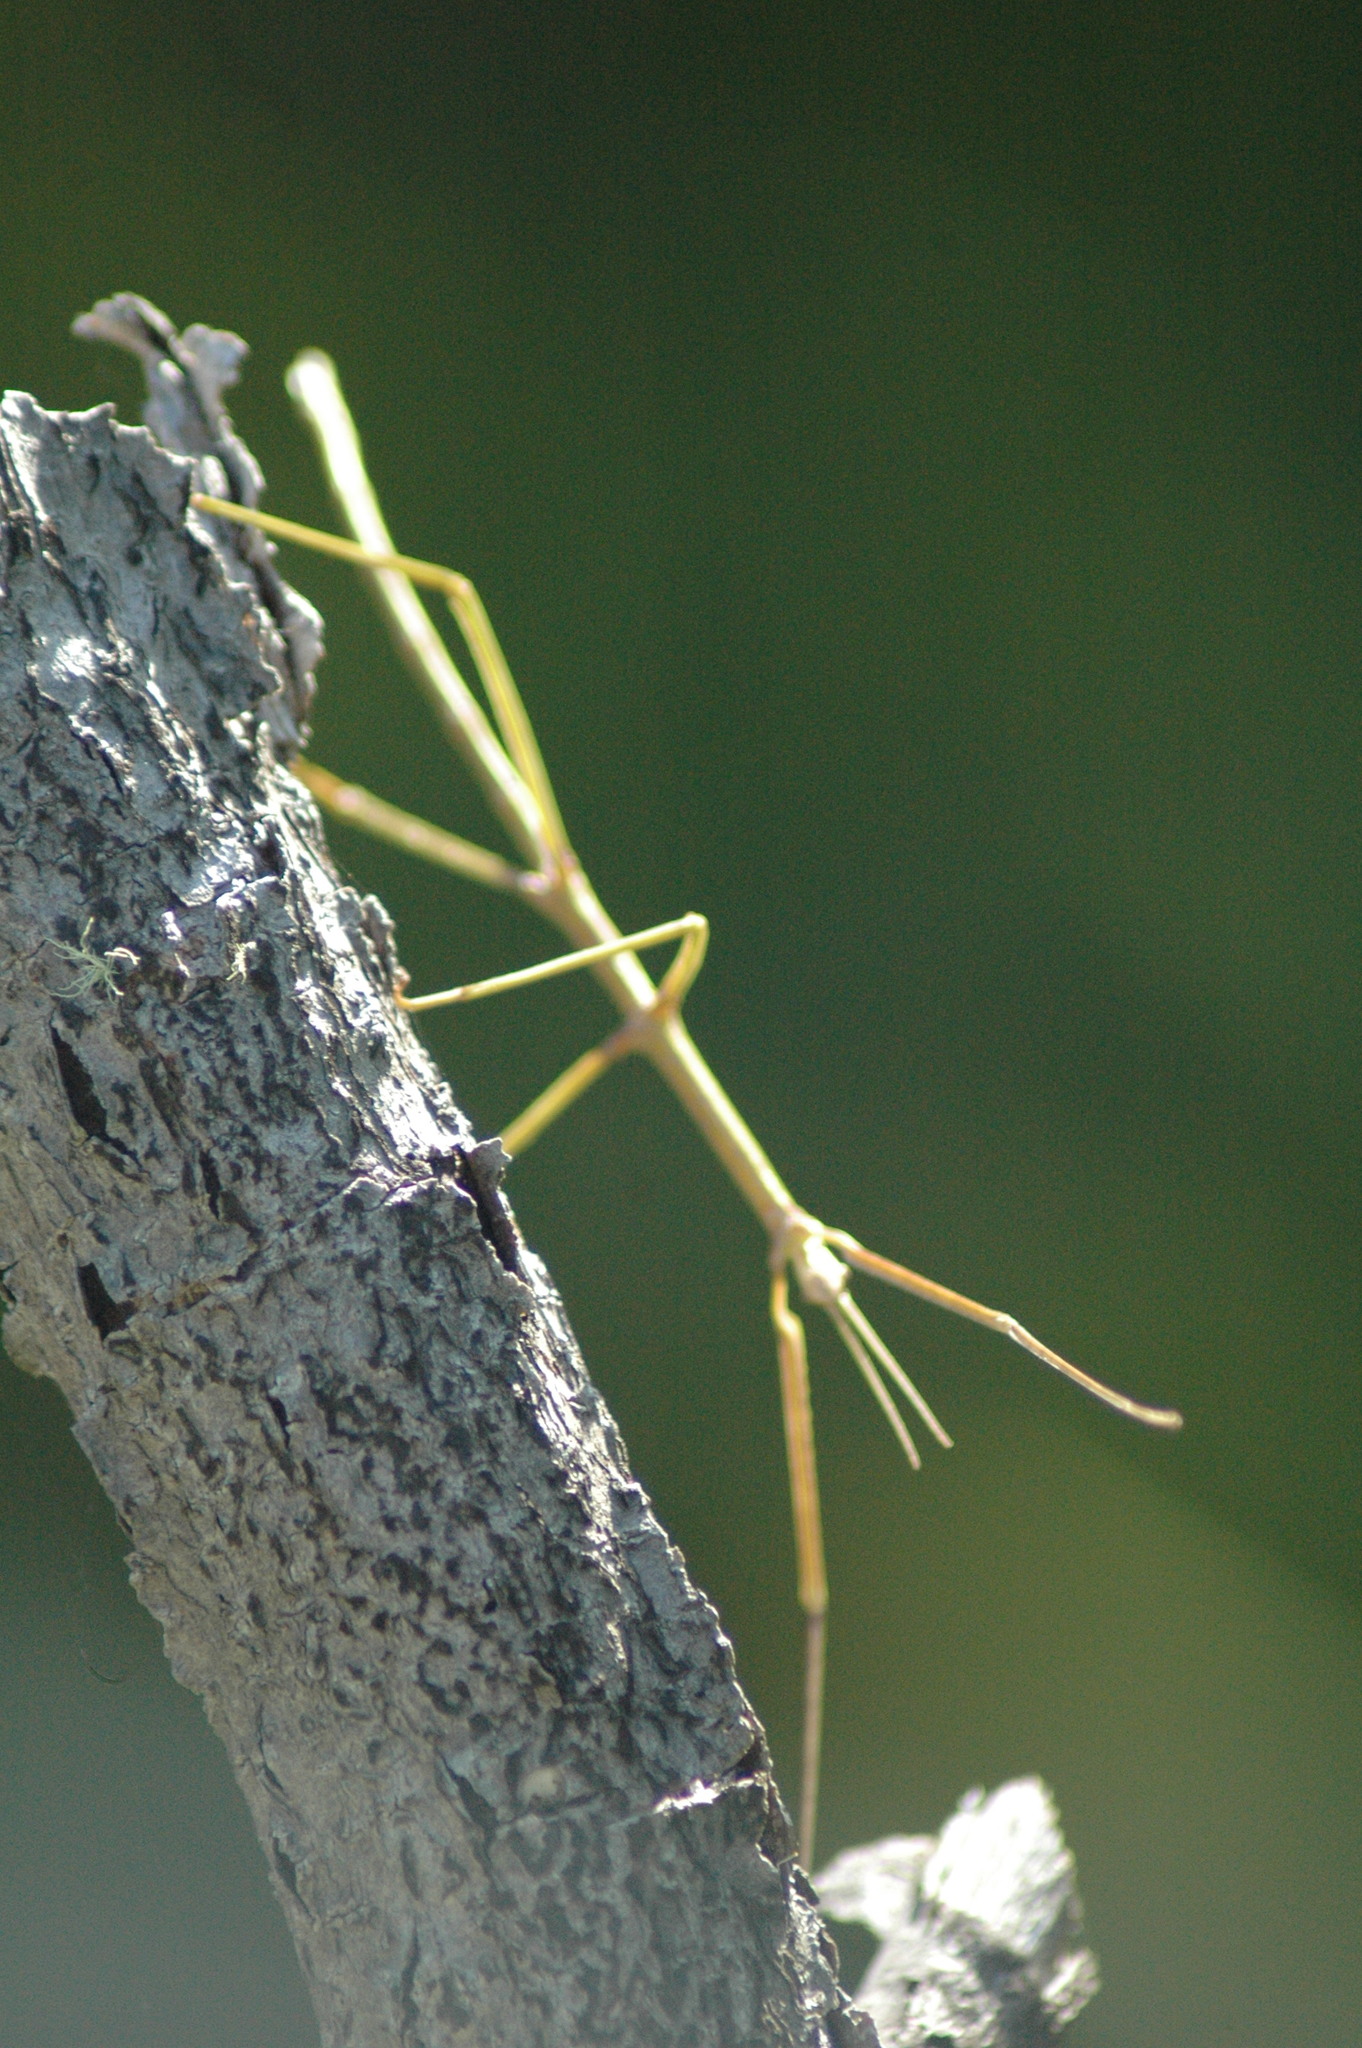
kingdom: Animalia
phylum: Arthropoda
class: Insecta
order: Phasmida
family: Phasmatidae
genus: Ctenomorpha
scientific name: Ctenomorpha marginipennis
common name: Margined-winged stick-insect
